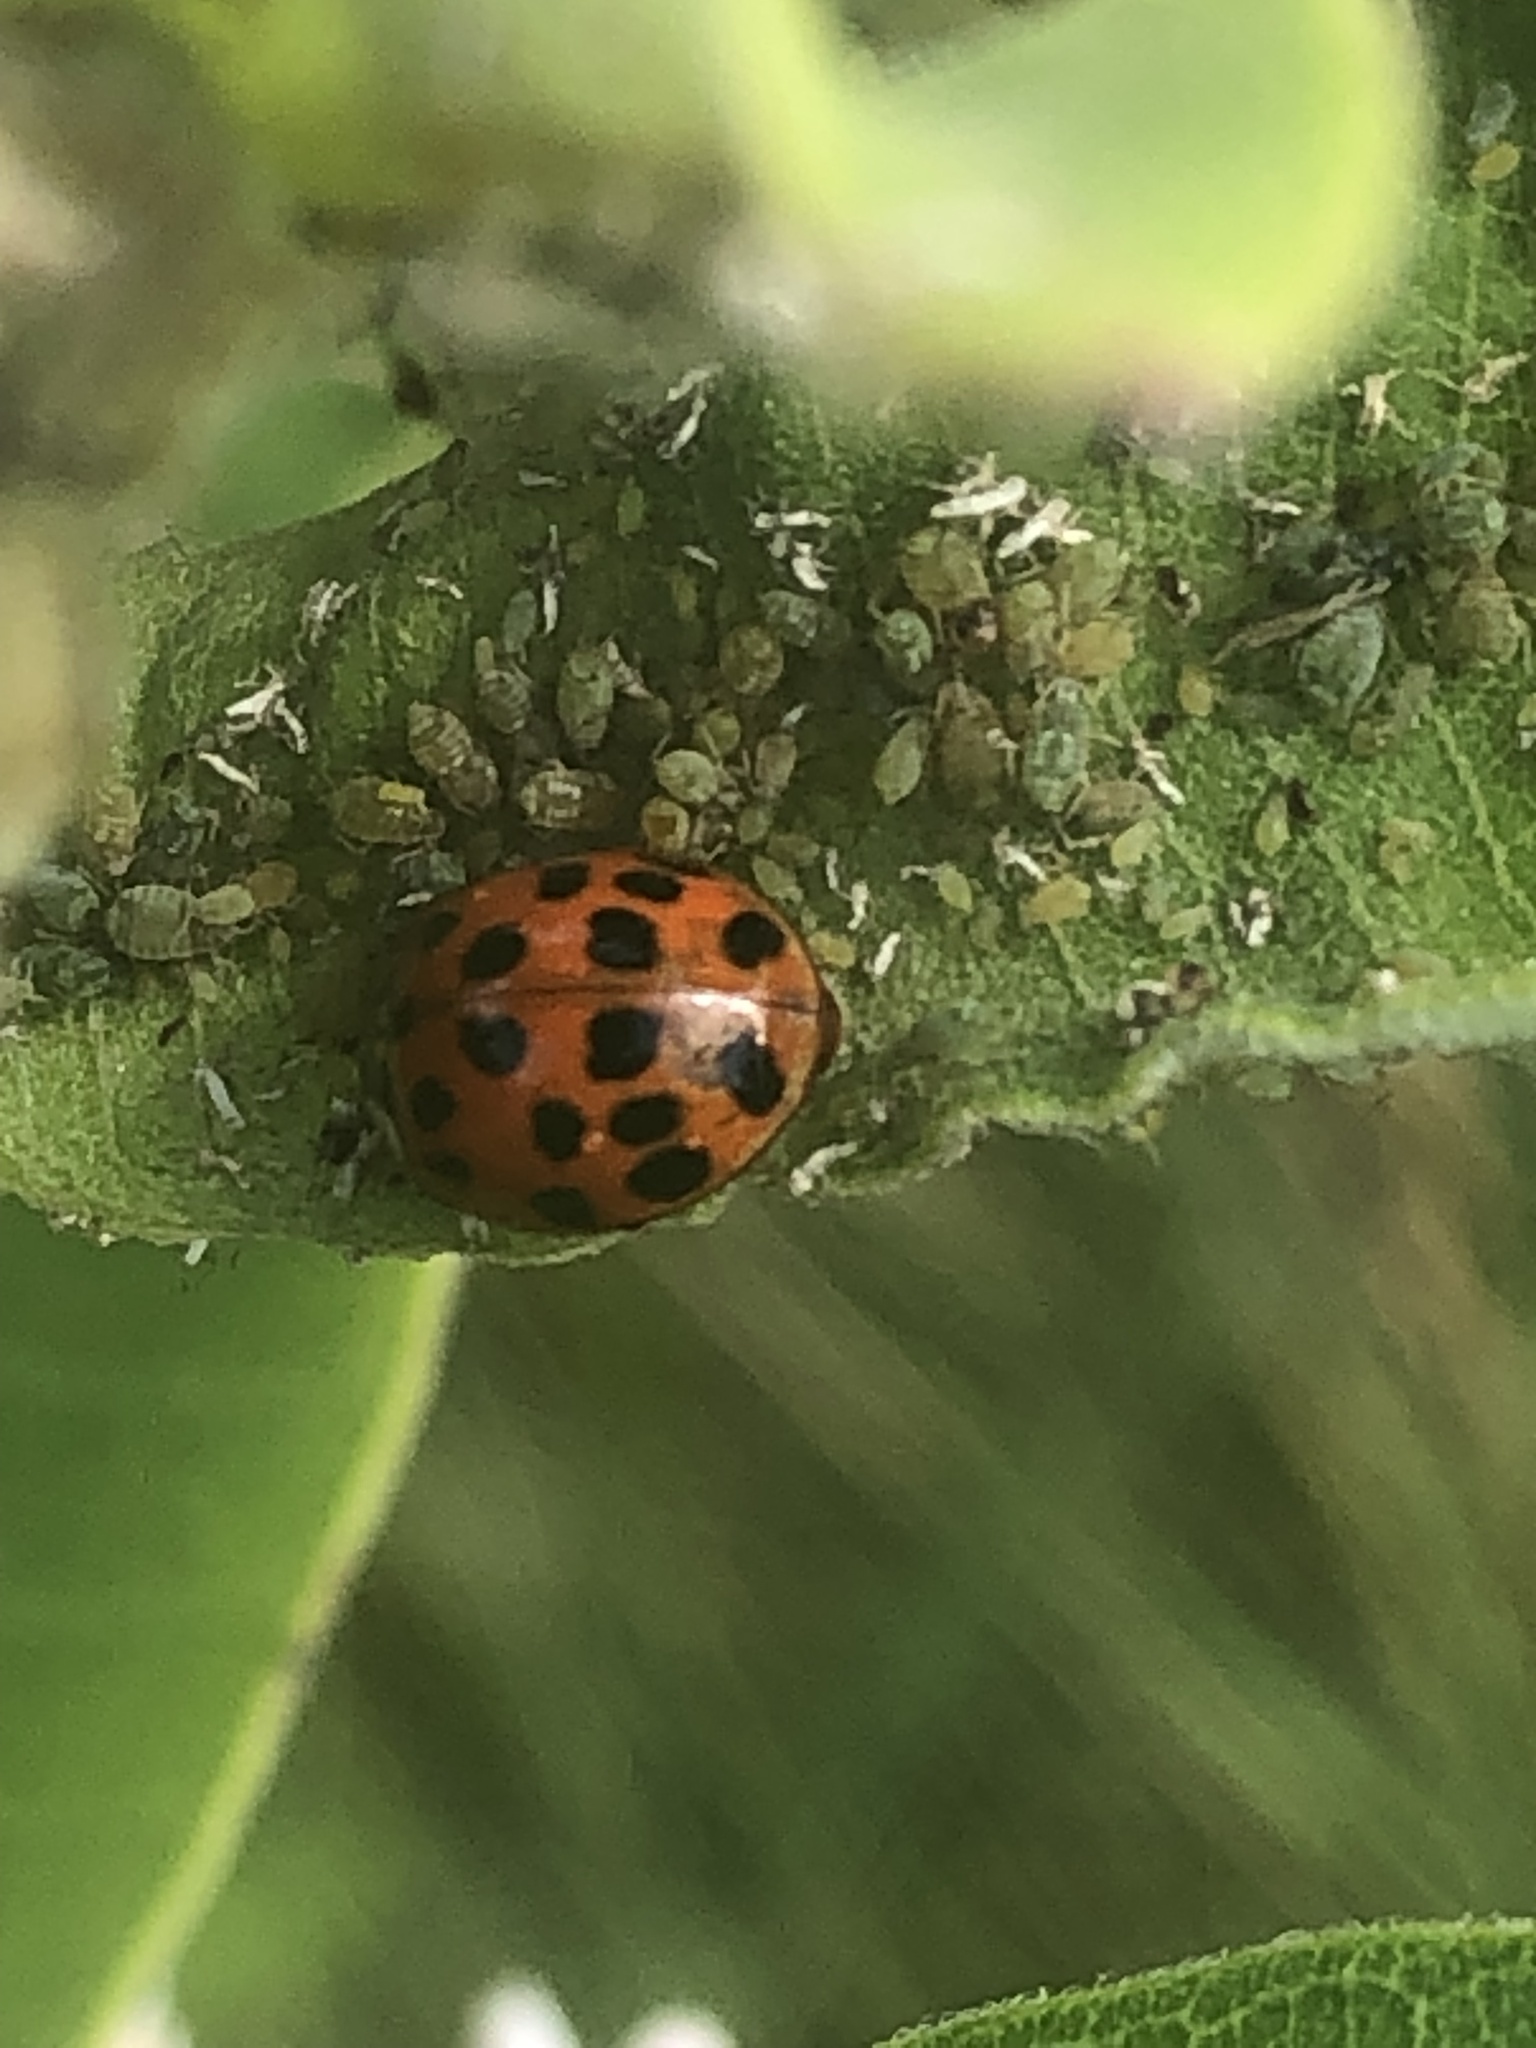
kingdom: Animalia
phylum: Arthropoda
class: Insecta
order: Coleoptera
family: Coccinellidae
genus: Harmonia
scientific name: Harmonia axyridis
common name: Harlequin ladybird
